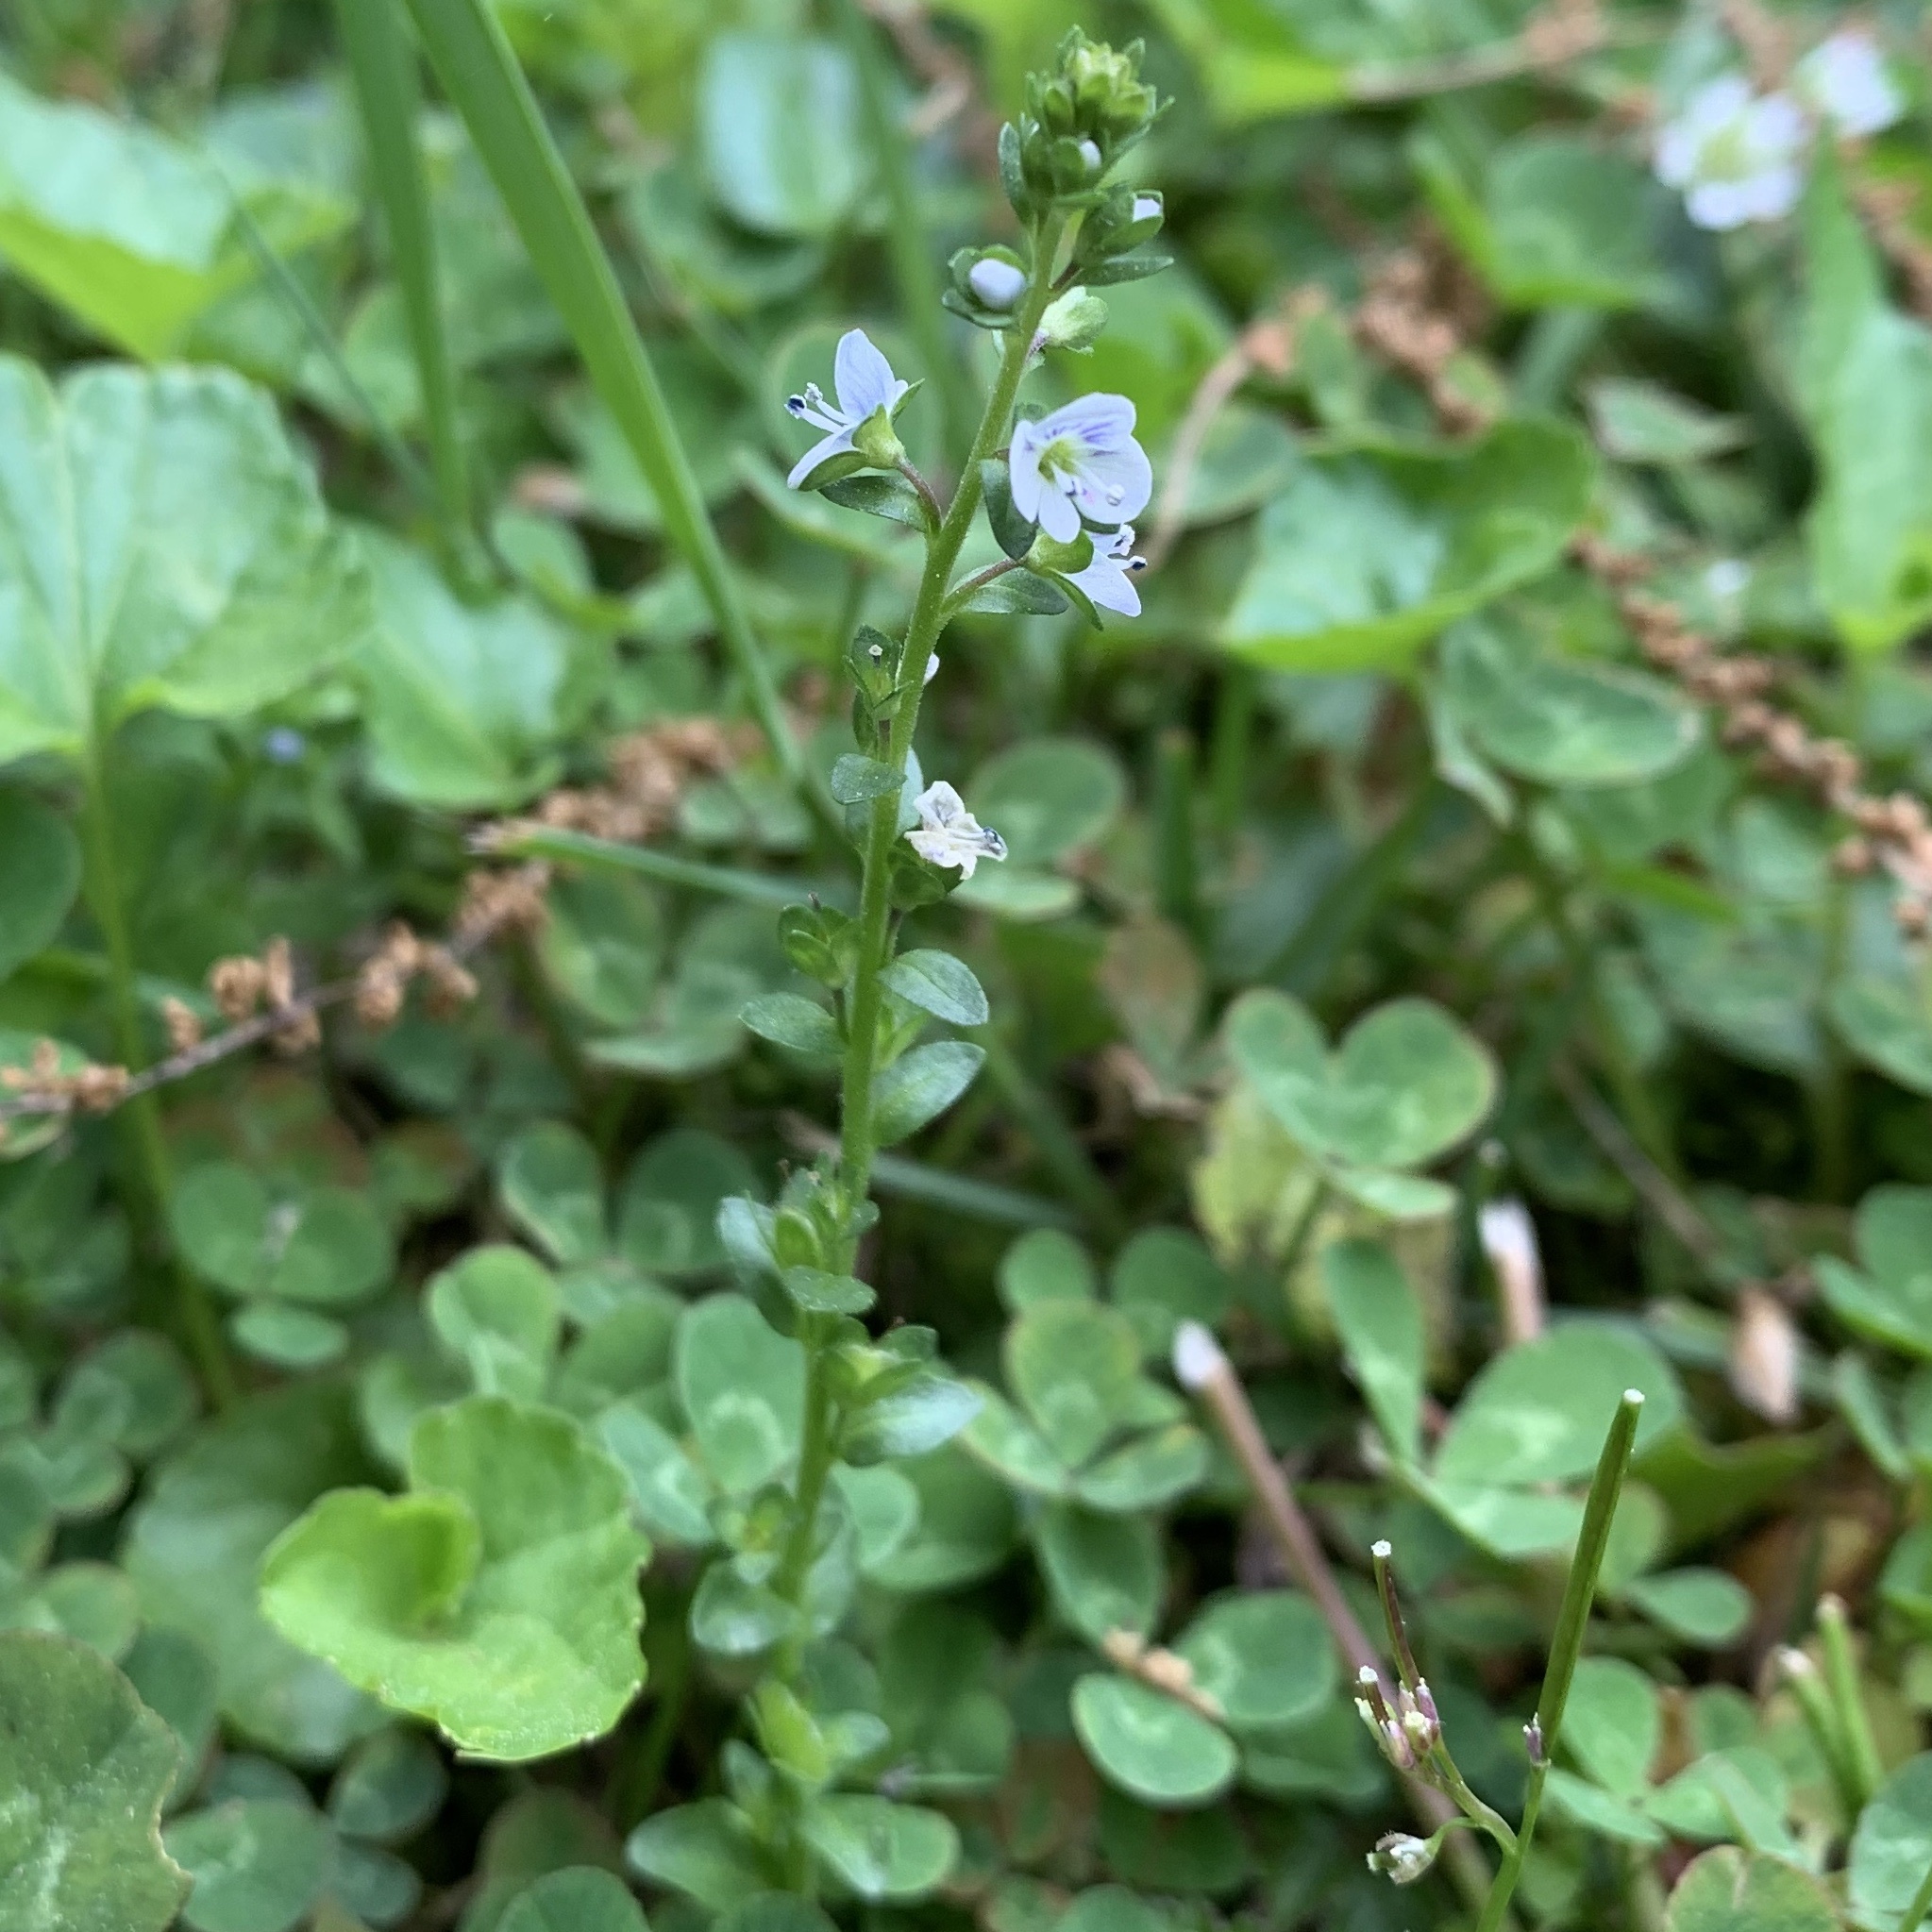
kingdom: Plantae
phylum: Tracheophyta
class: Magnoliopsida
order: Lamiales
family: Plantaginaceae
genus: Veronica
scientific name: Veronica serpyllifolia
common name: Thyme-leaved speedwell
